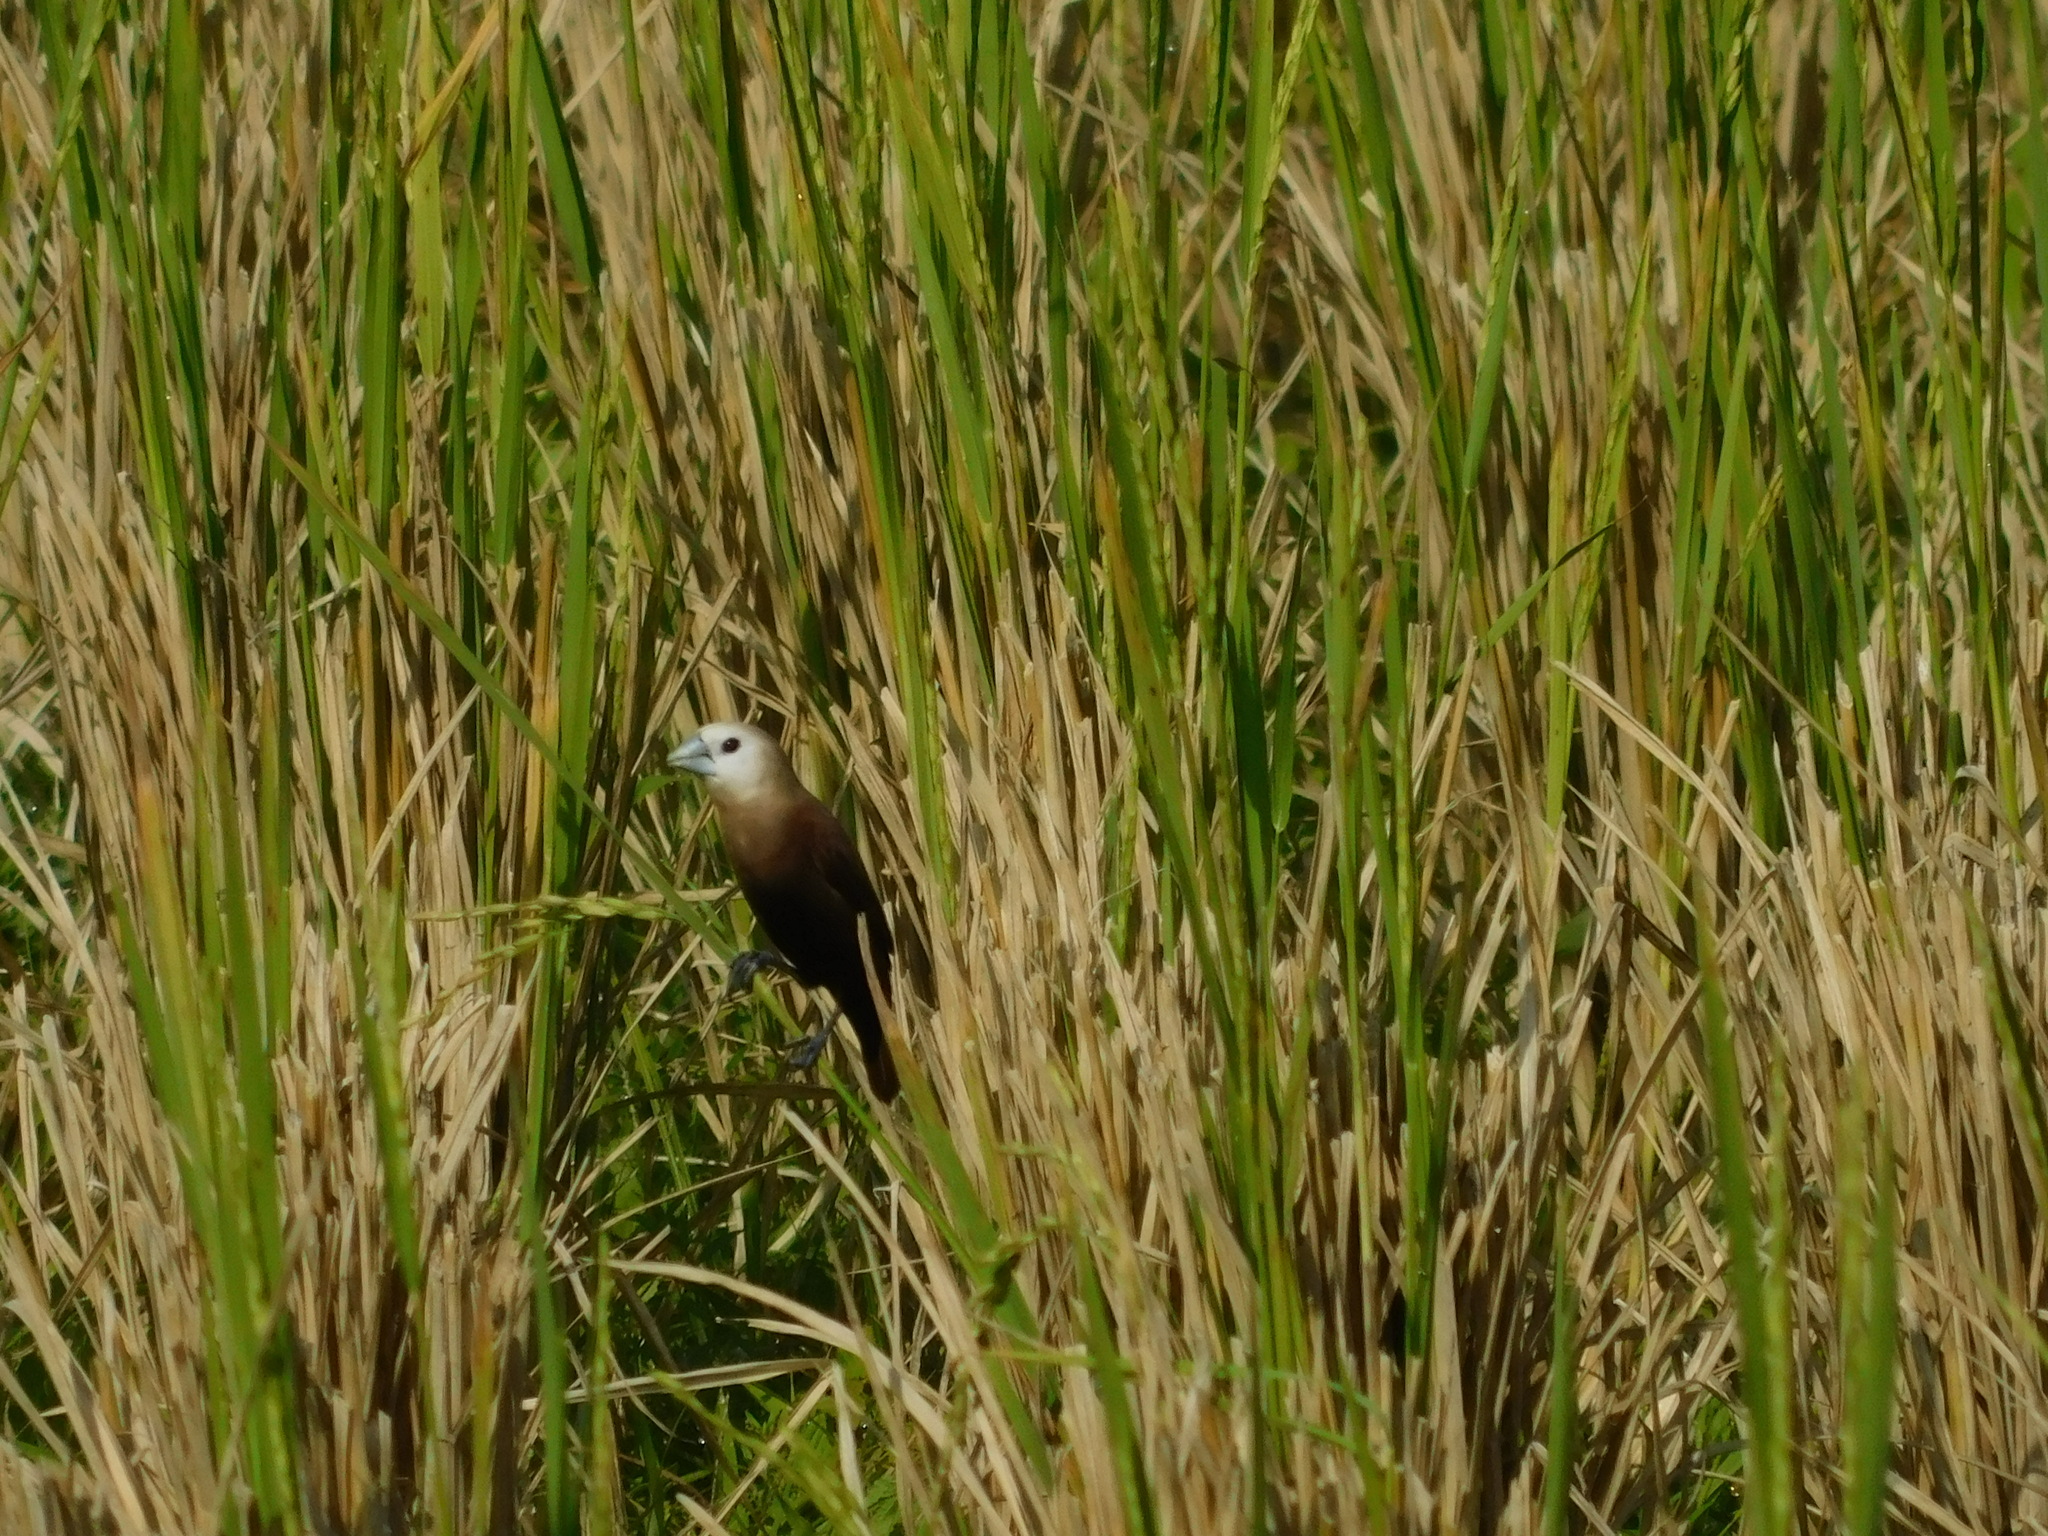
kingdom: Animalia
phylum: Chordata
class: Aves
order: Passeriformes
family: Estrildidae
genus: Lonchura
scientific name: Lonchura maja
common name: White-headed munia
